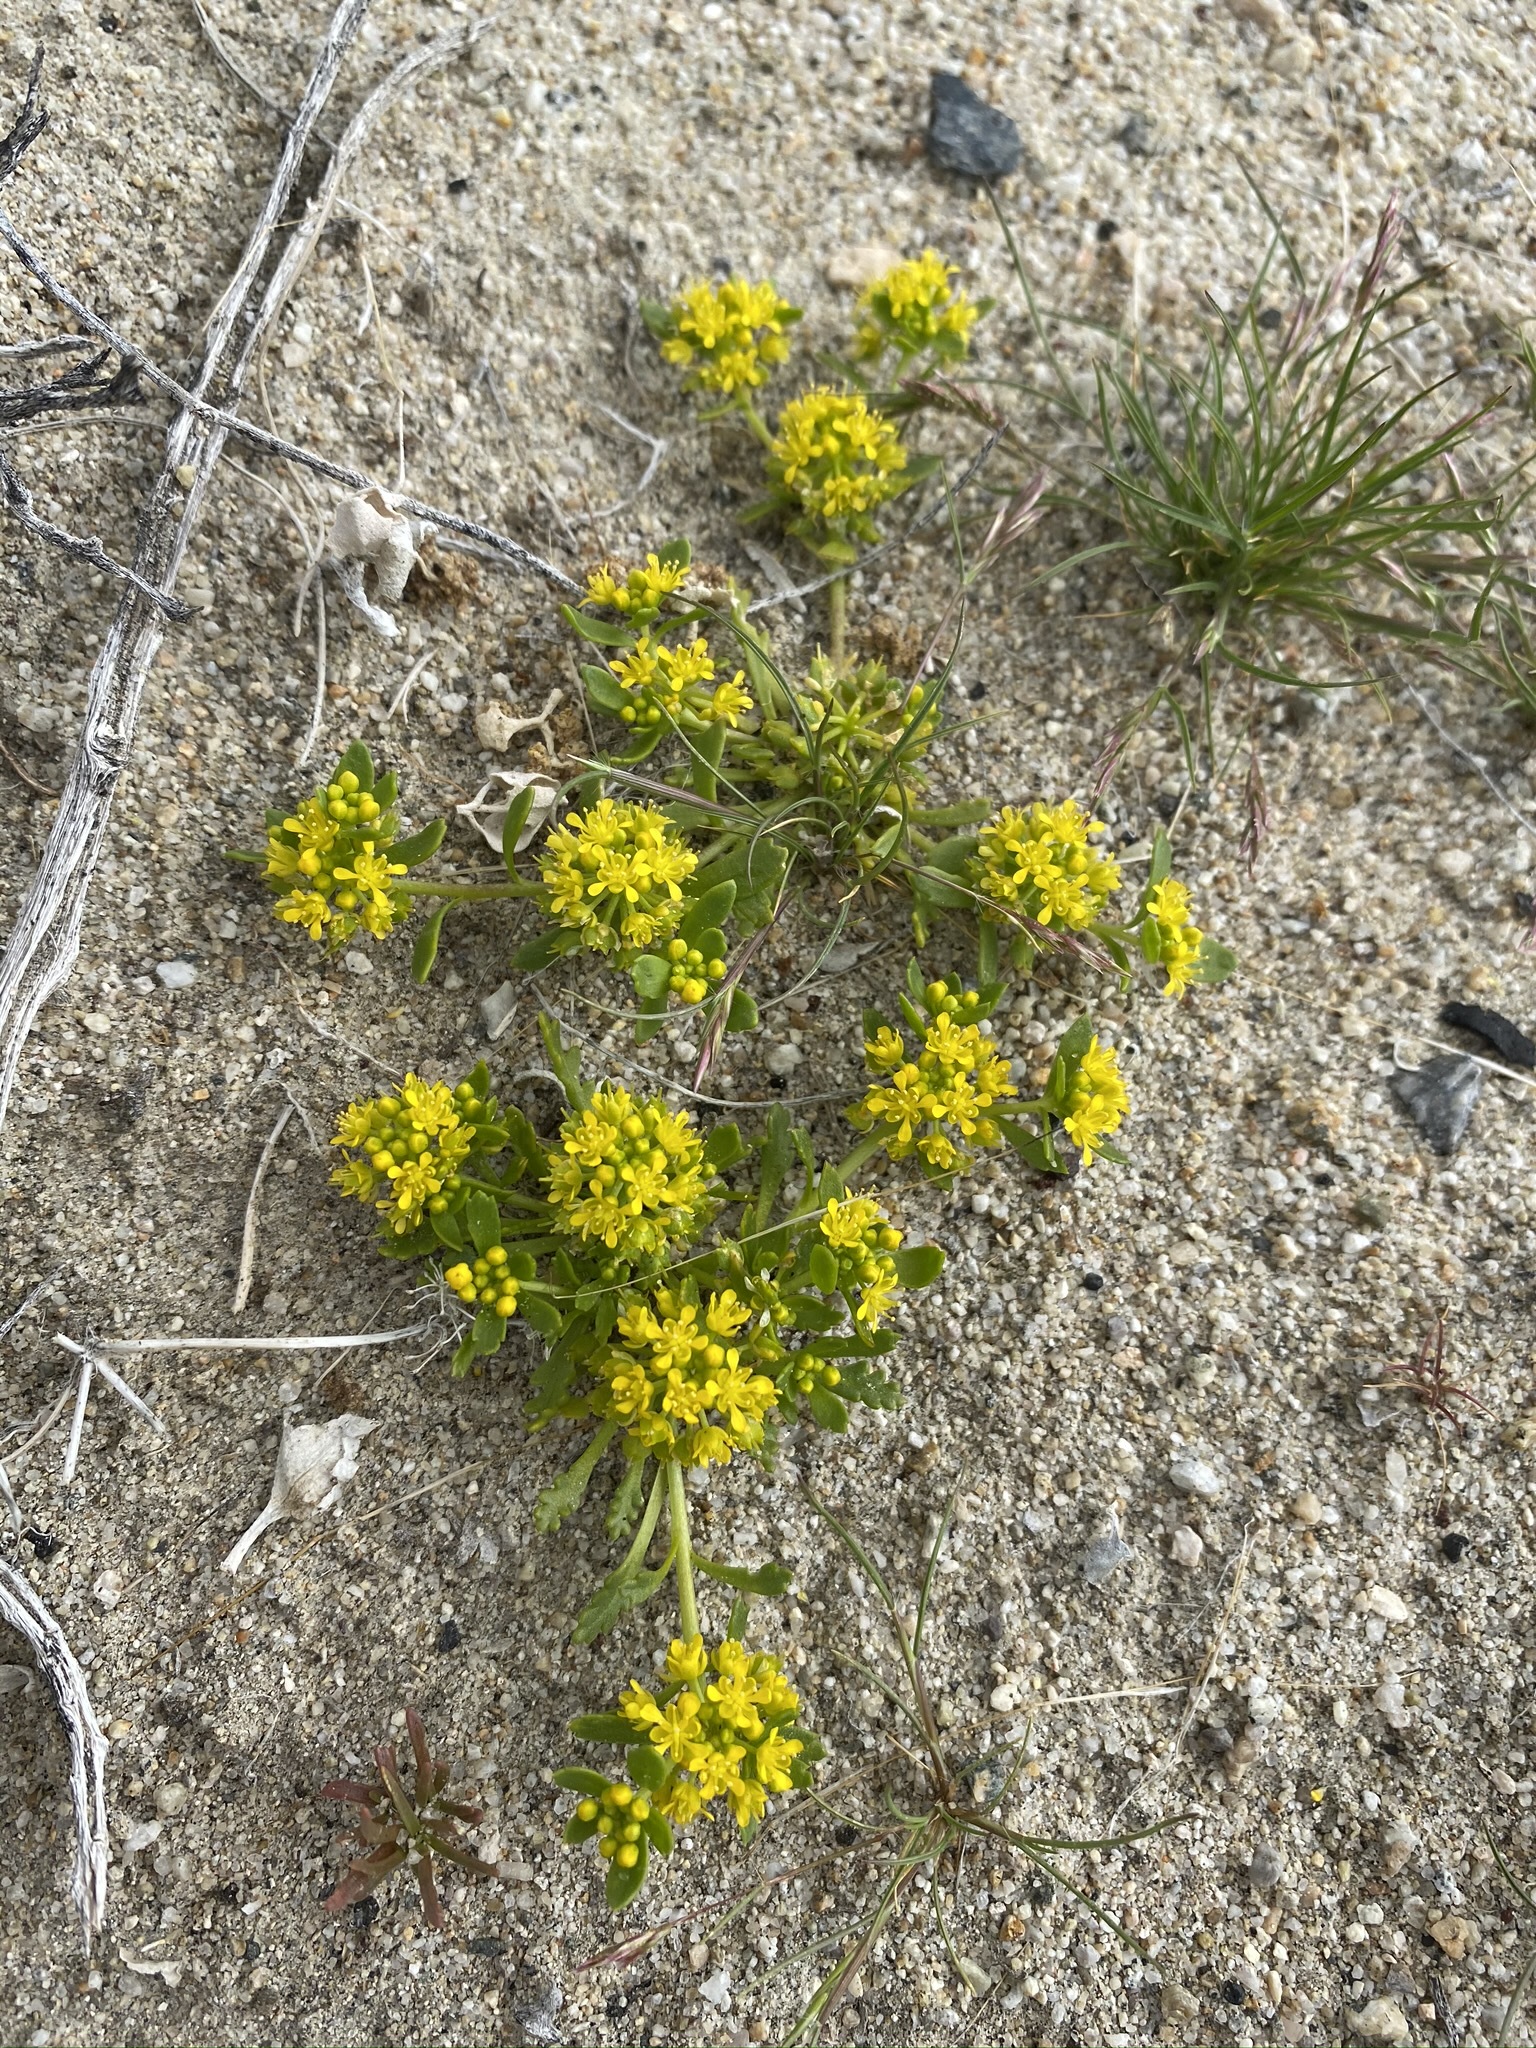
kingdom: Plantae
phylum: Tracheophyta
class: Magnoliopsida
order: Brassicales
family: Brassicaceae
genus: Lepidium
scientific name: Lepidium flavum
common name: Yellow pepperwort
